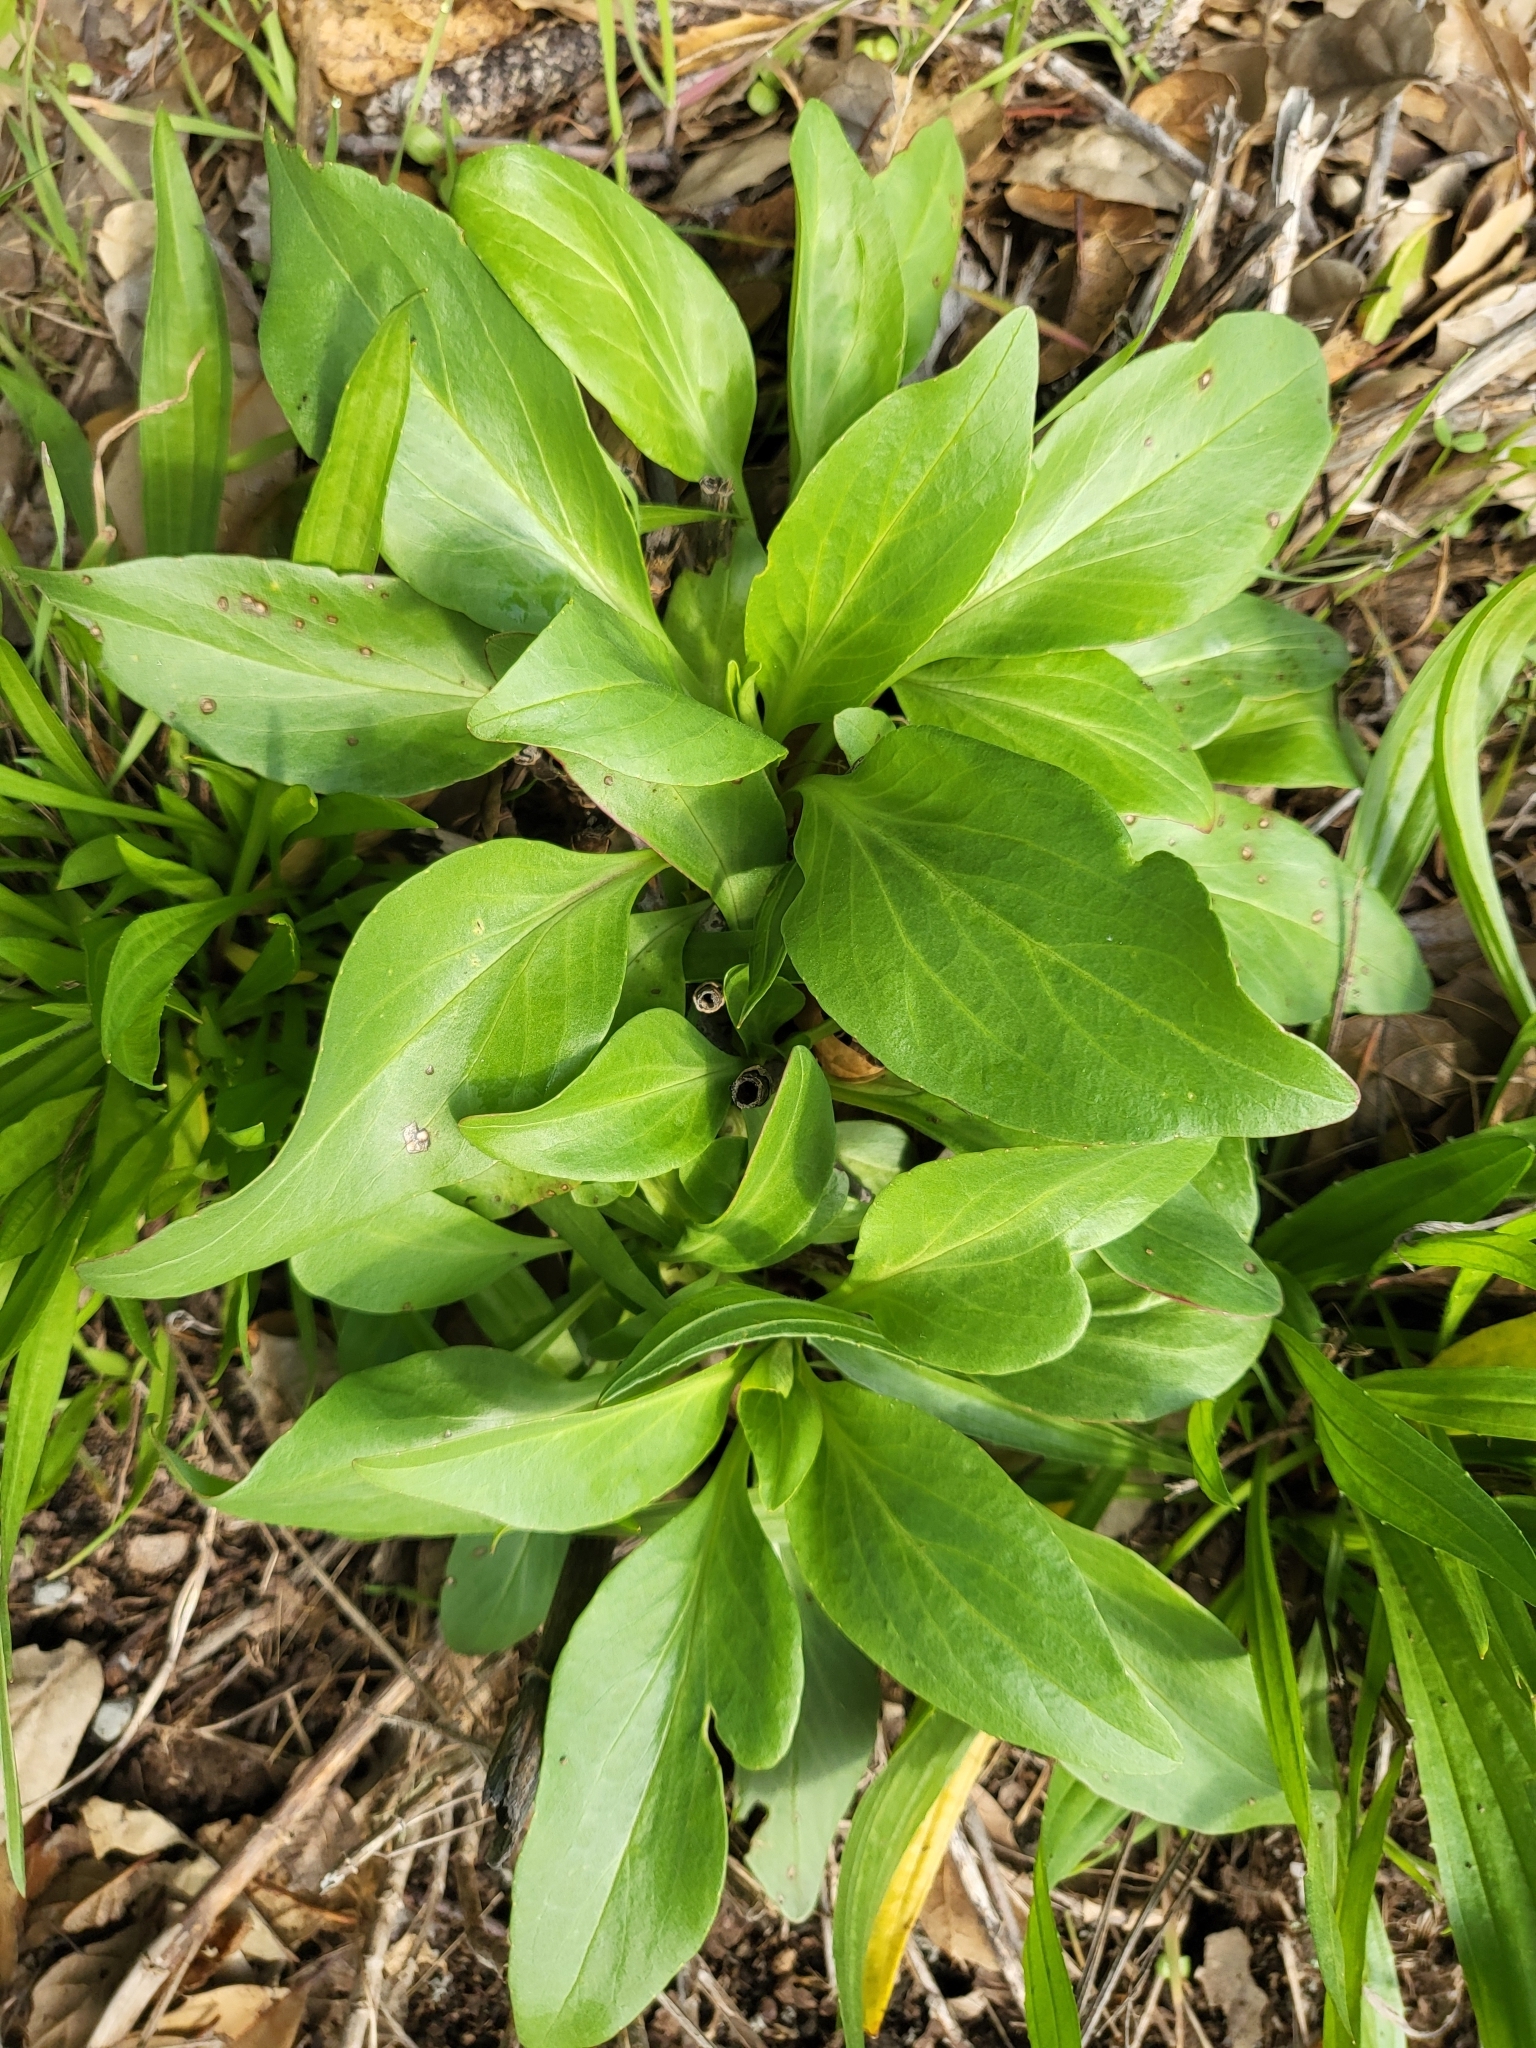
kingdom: Plantae
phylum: Tracheophyta
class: Magnoliopsida
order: Dipsacales
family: Caprifoliaceae
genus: Centranthus
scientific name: Centranthus ruber
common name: Red valerian
